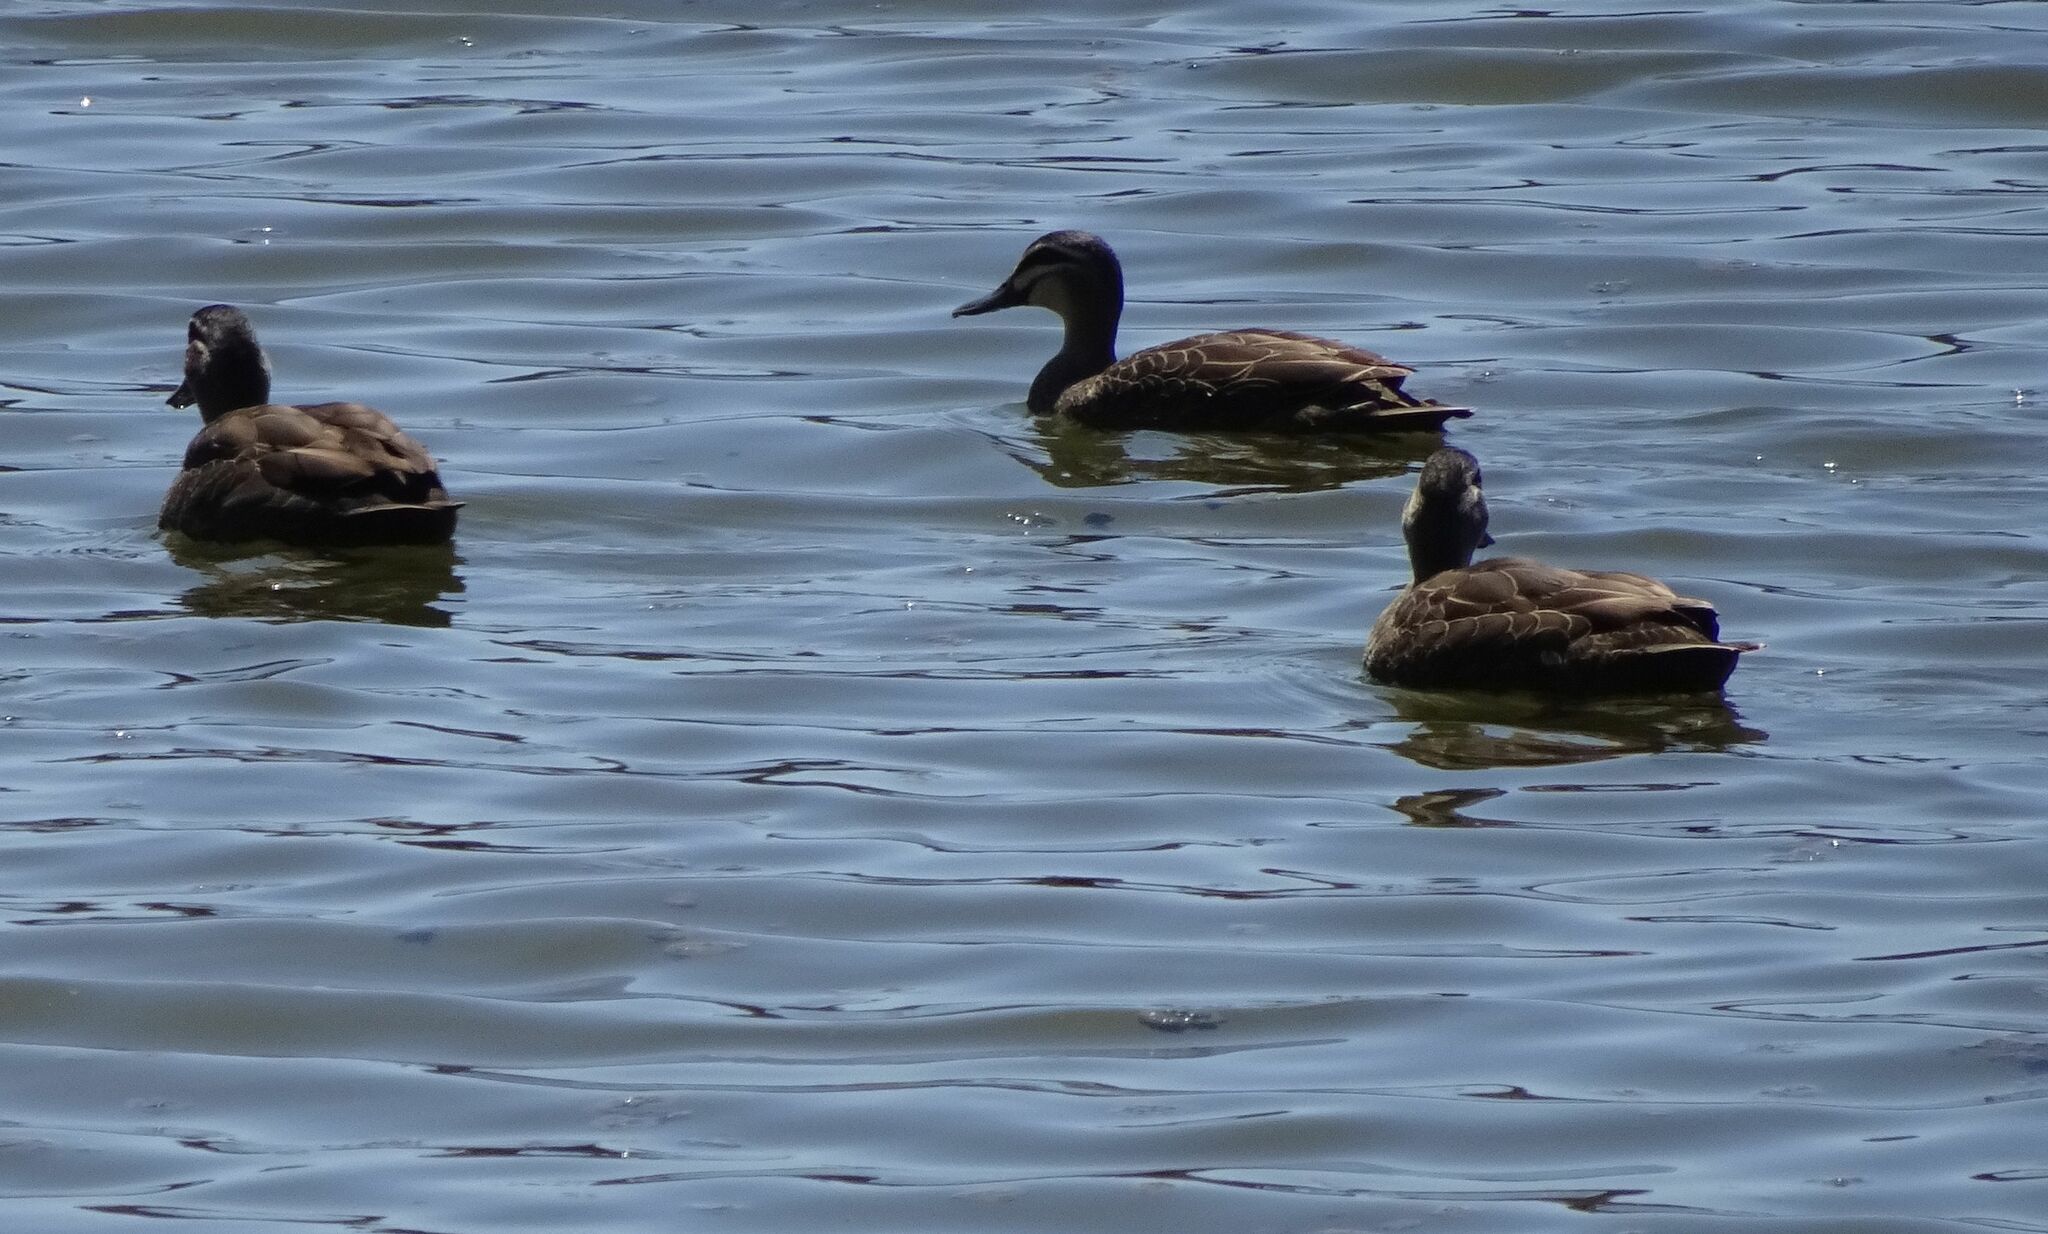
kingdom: Animalia
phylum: Chordata
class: Aves
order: Anseriformes
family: Anatidae
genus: Anas
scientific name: Anas superciliosa
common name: Pacific black duck
